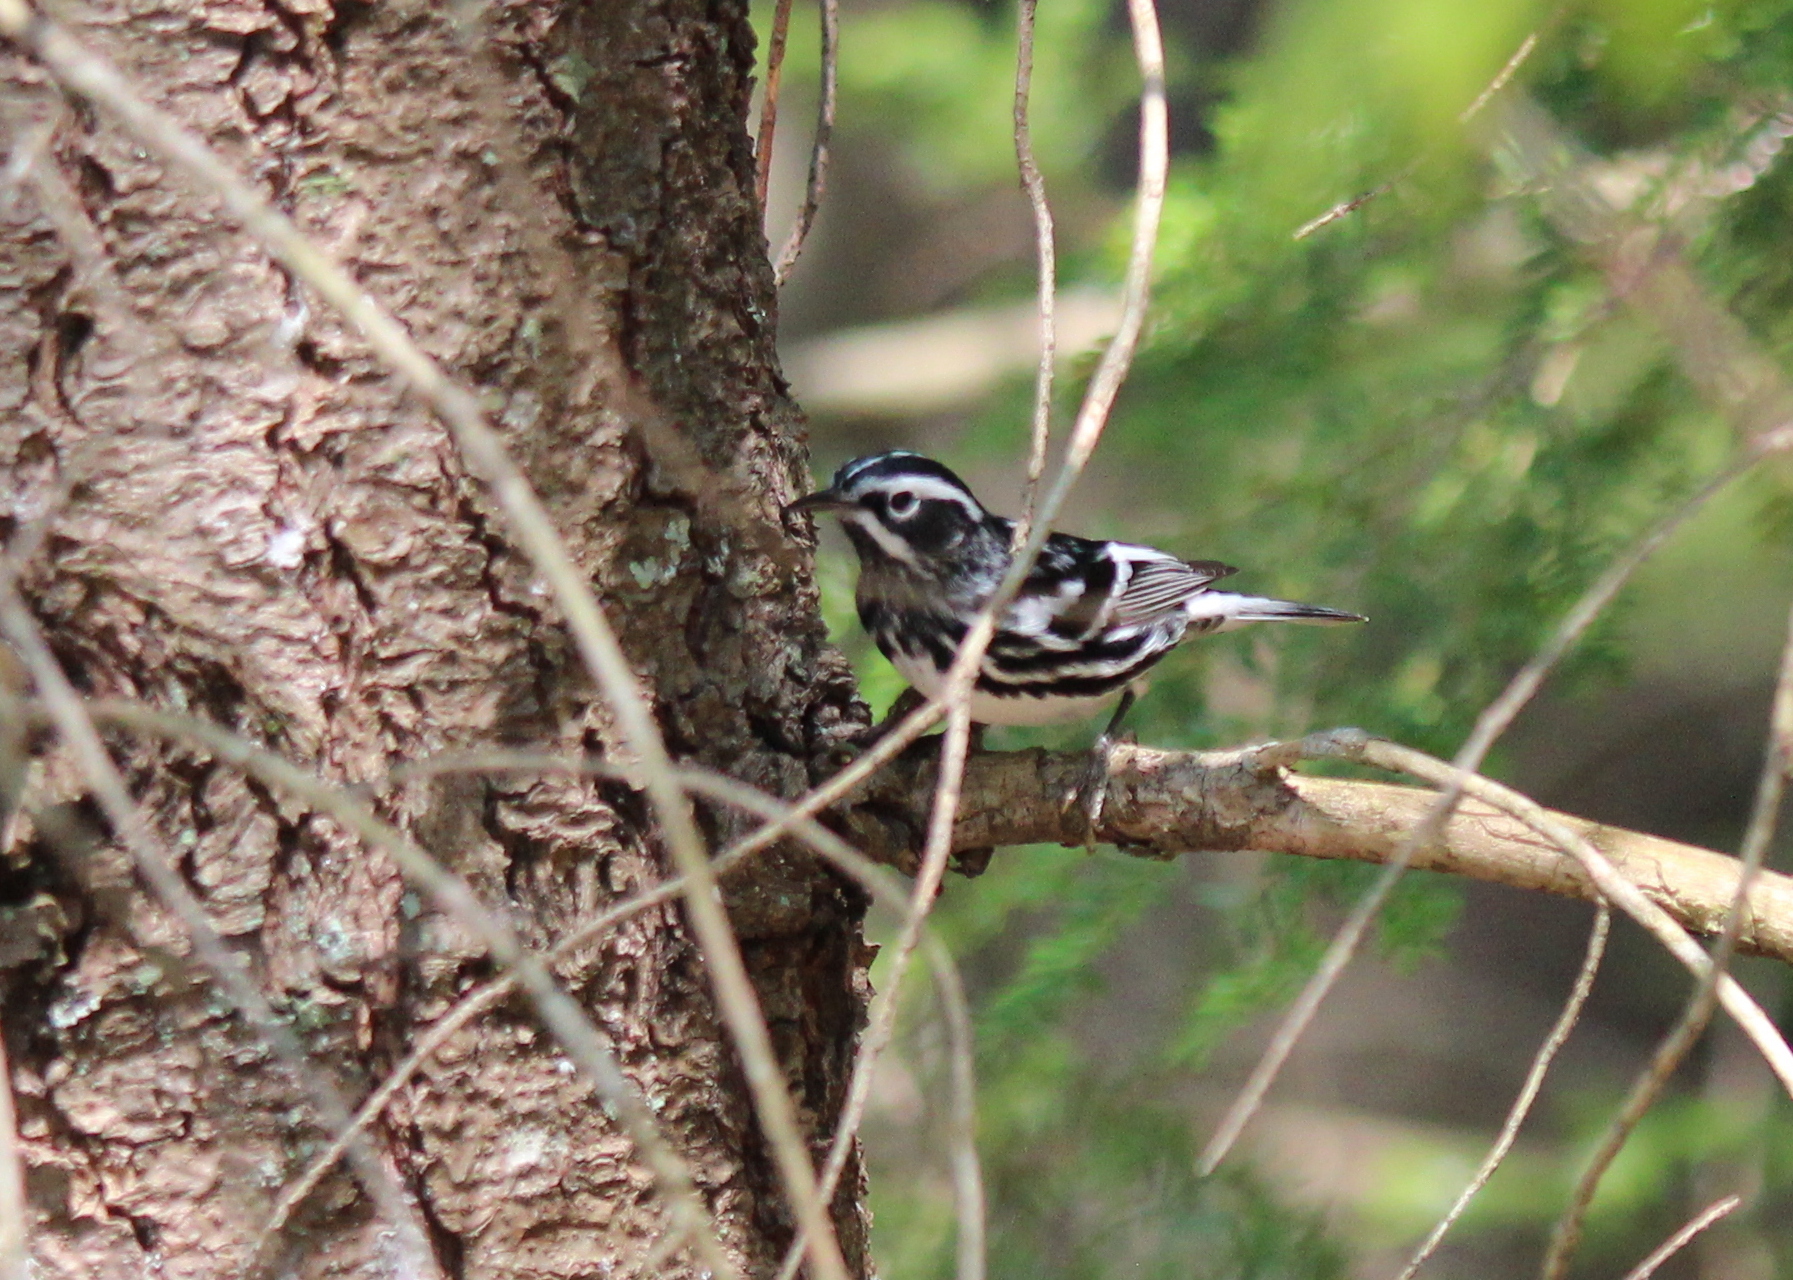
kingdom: Animalia
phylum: Chordata
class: Aves
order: Passeriformes
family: Parulidae
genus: Mniotilta
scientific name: Mniotilta varia
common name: Black-and-white warbler
